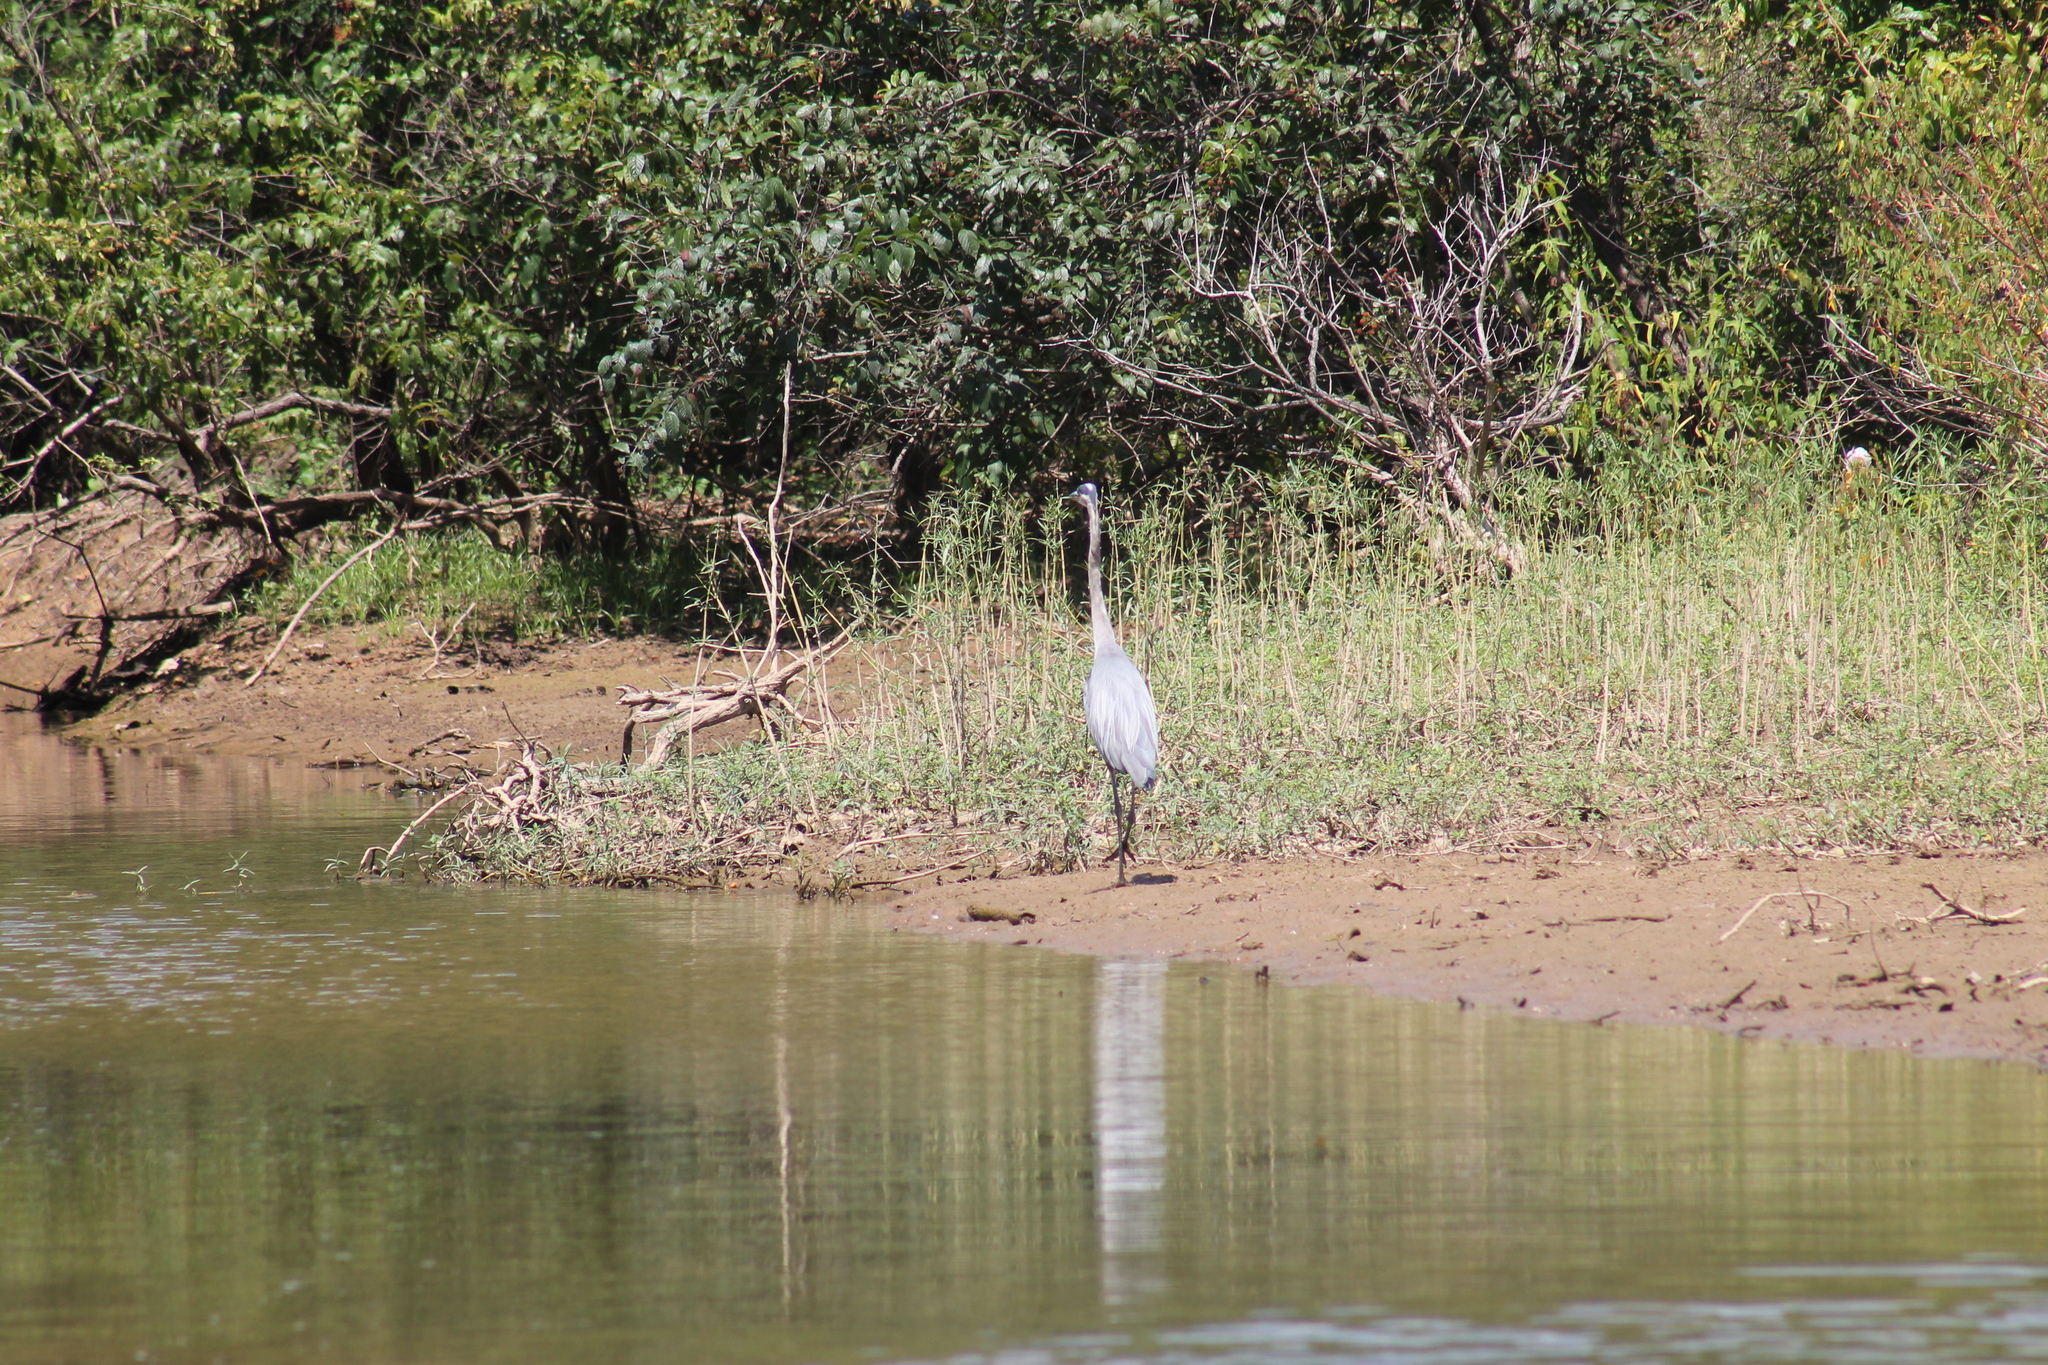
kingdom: Animalia
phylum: Chordata
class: Aves
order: Pelecaniformes
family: Ardeidae
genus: Ardea
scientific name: Ardea herodias
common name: Great blue heron
